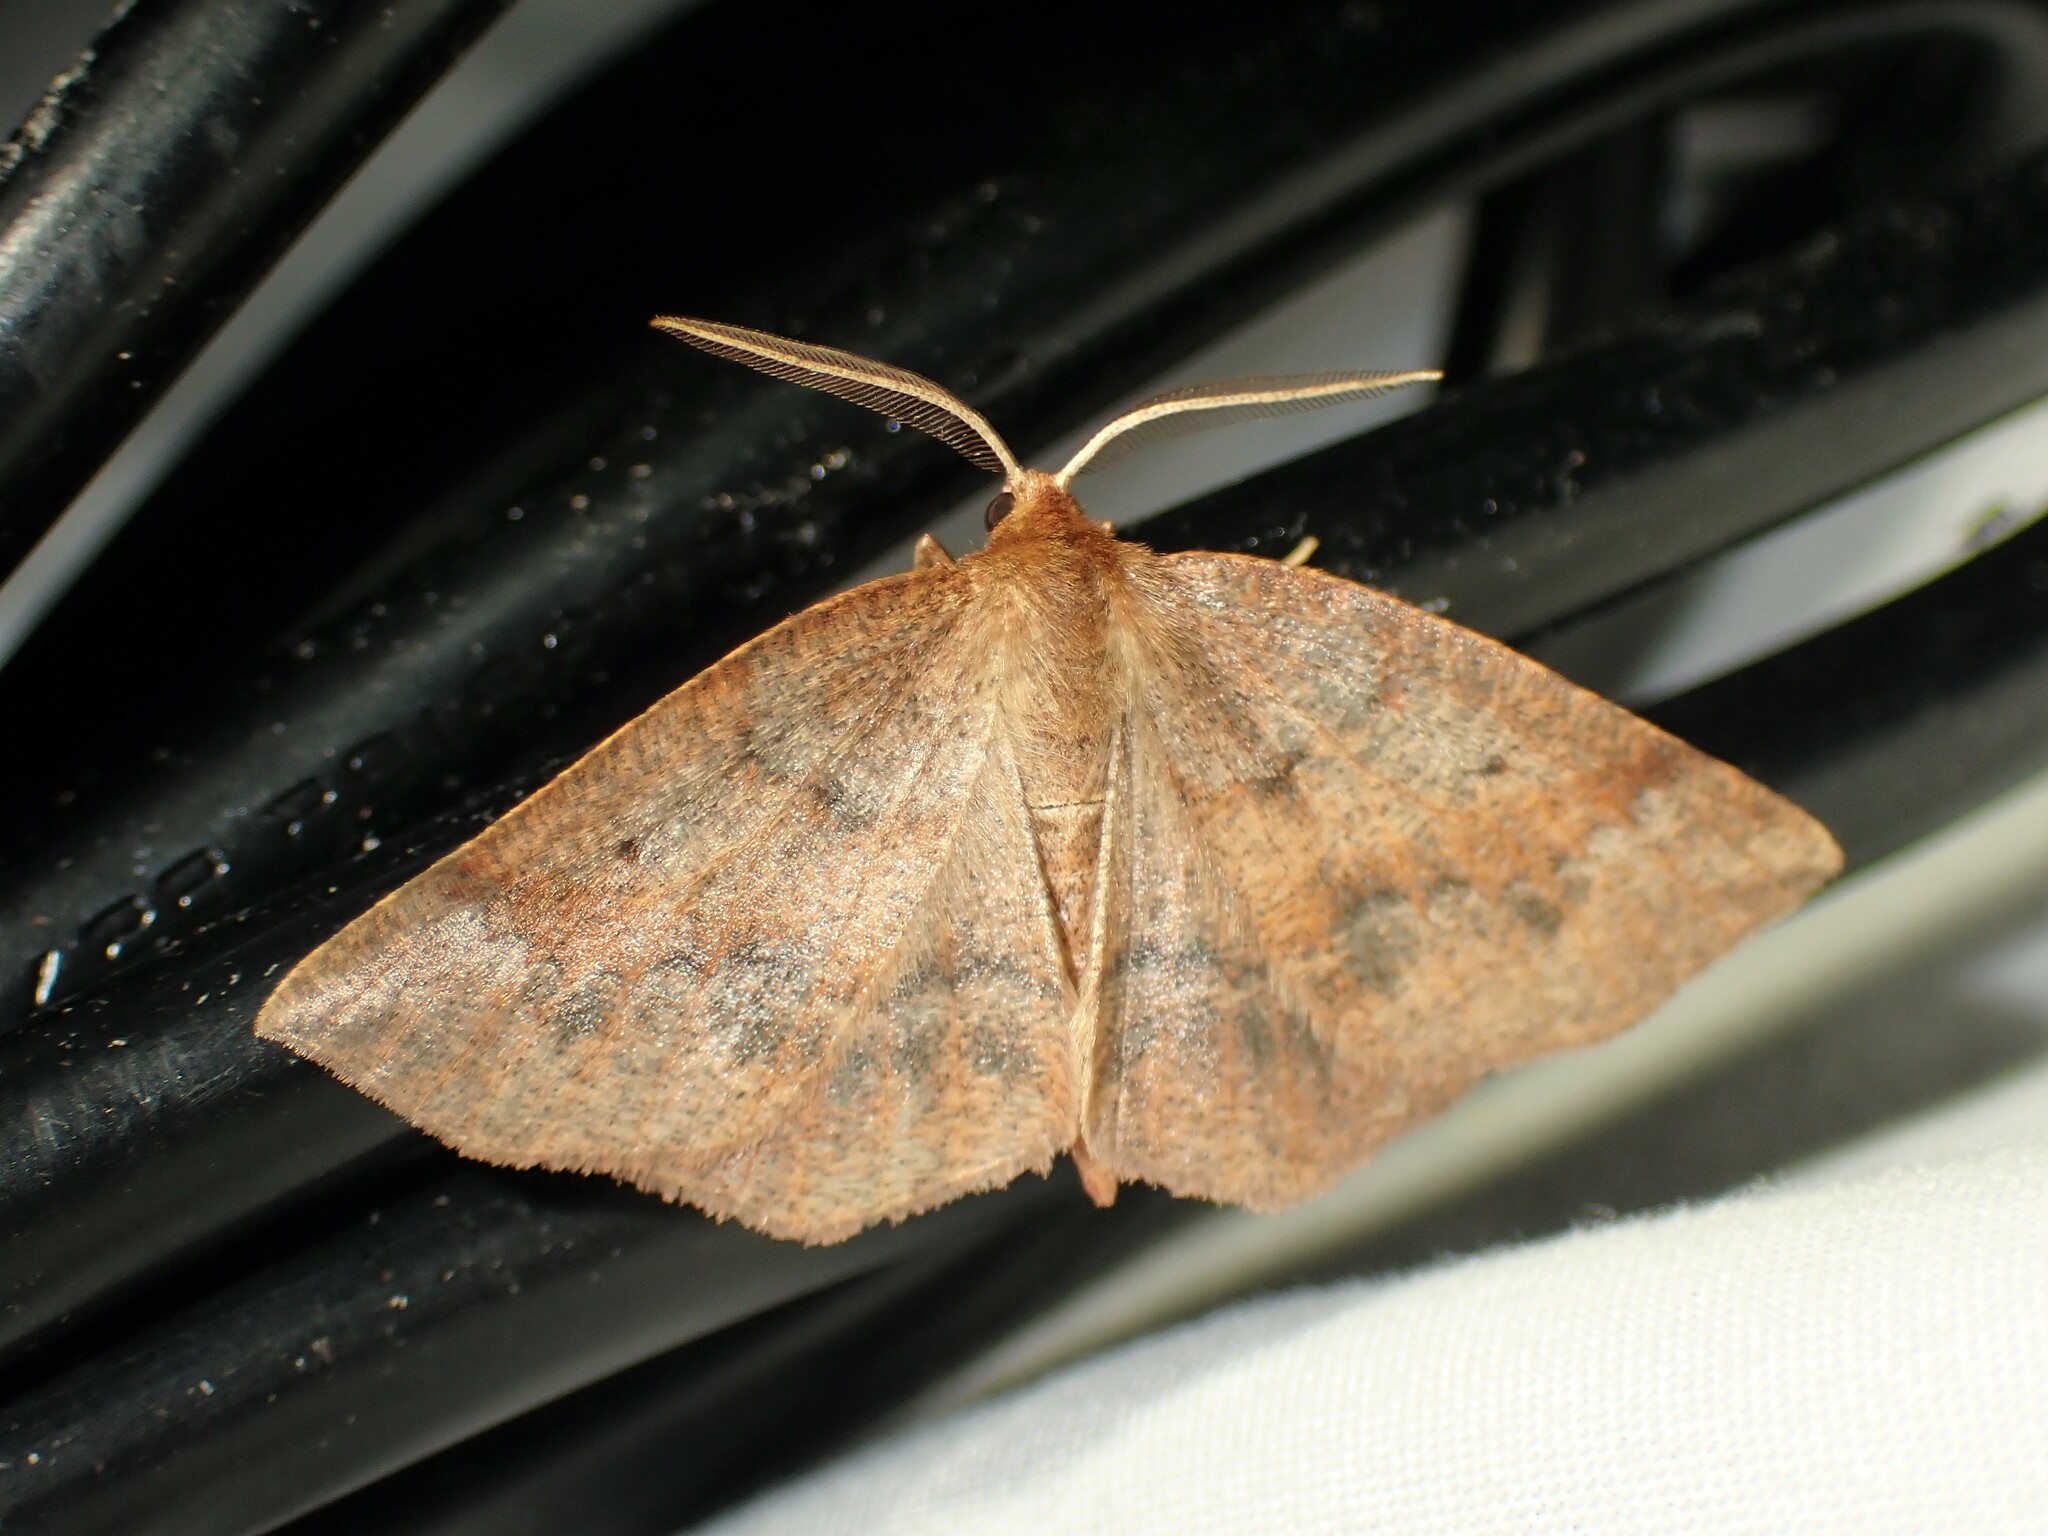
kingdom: Animalia
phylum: Arthropoda
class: Insecta
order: Lepidoptera
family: Geometridae
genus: Metarranthis
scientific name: Metarranthis duaria
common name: Ruddy metarranthis moth
